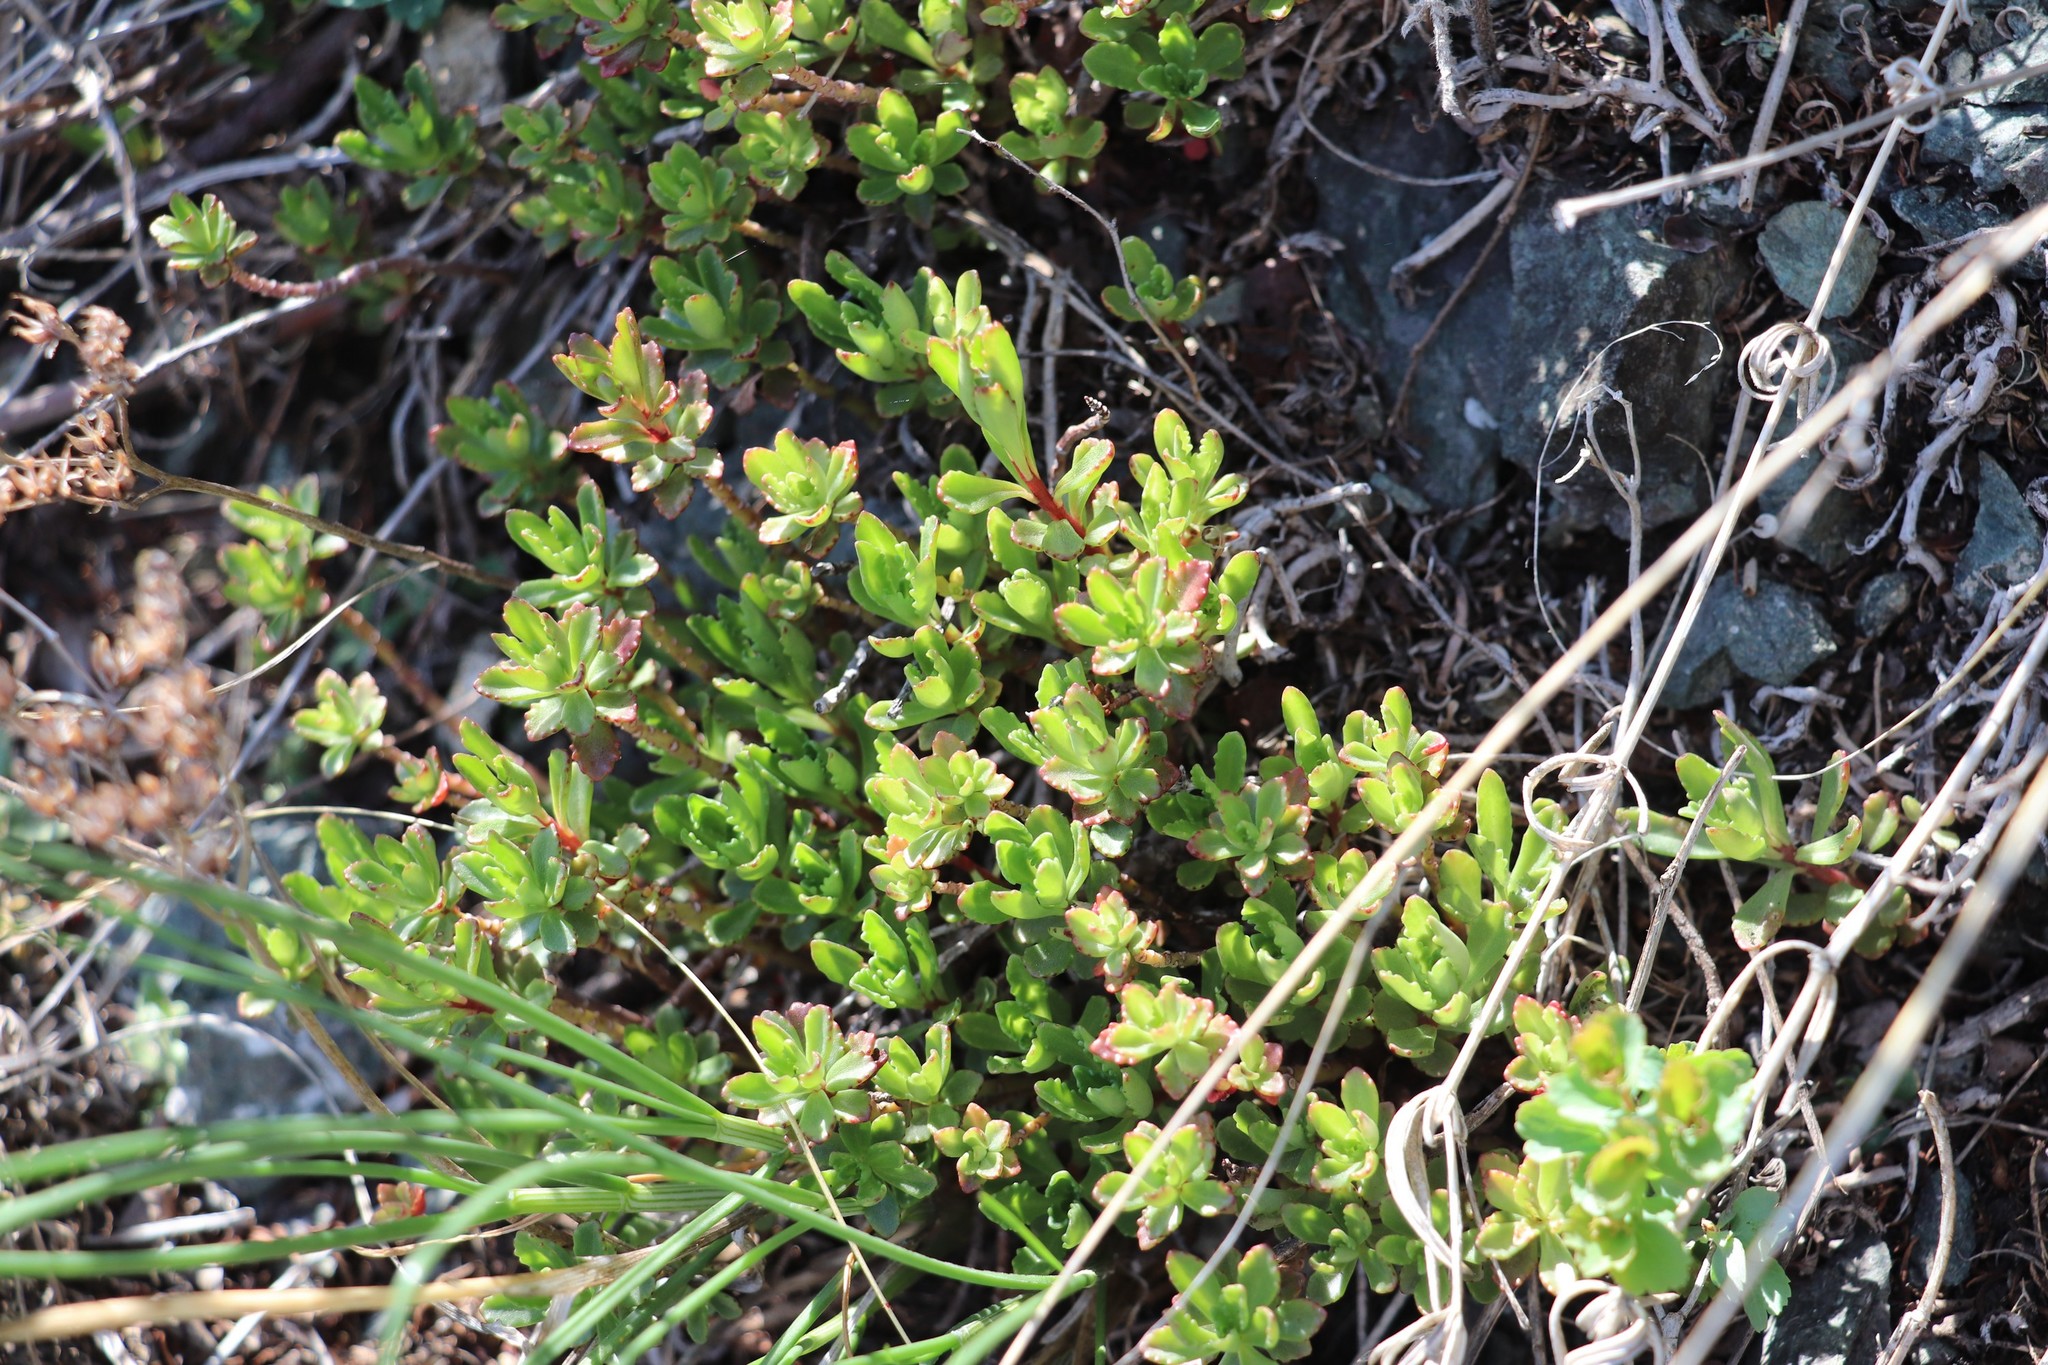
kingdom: Plantae
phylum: Tracheophyta
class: Magnoliopsida
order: Saxifragales
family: Crassulaceae
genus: Phedimus
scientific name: Phedimus hybridus
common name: Hybrid stonecrop
